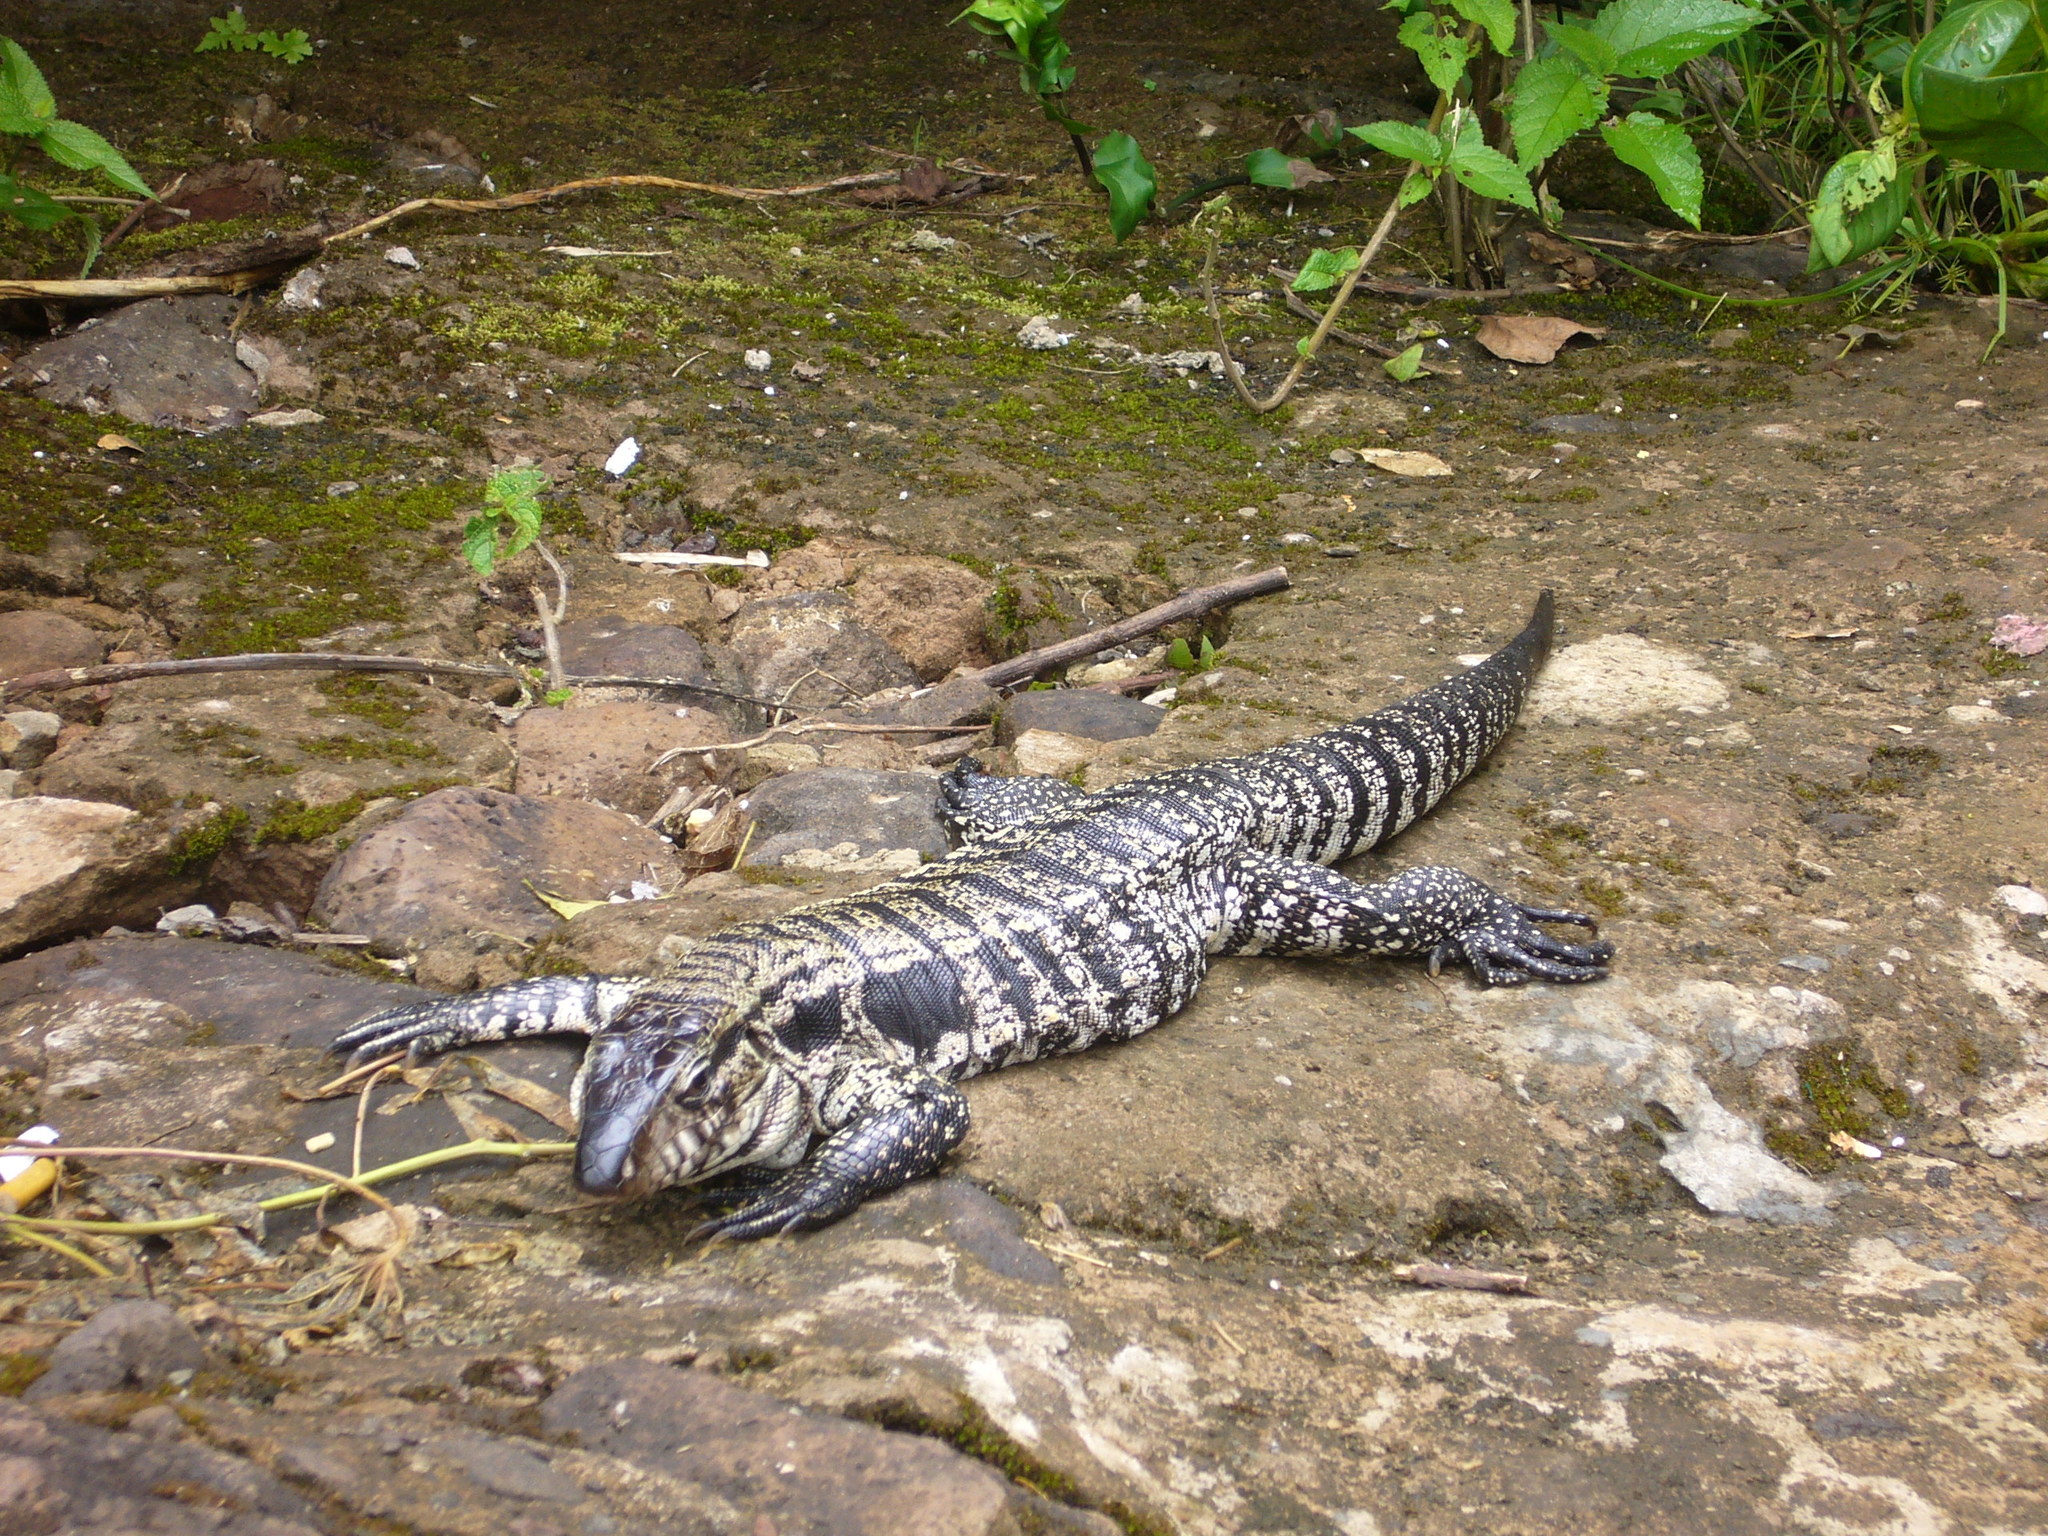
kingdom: Animalia
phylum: Chordata
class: Squamata
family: Teiidae
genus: Salvator
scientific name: Salvator merianae
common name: Argentine black and white tegu
